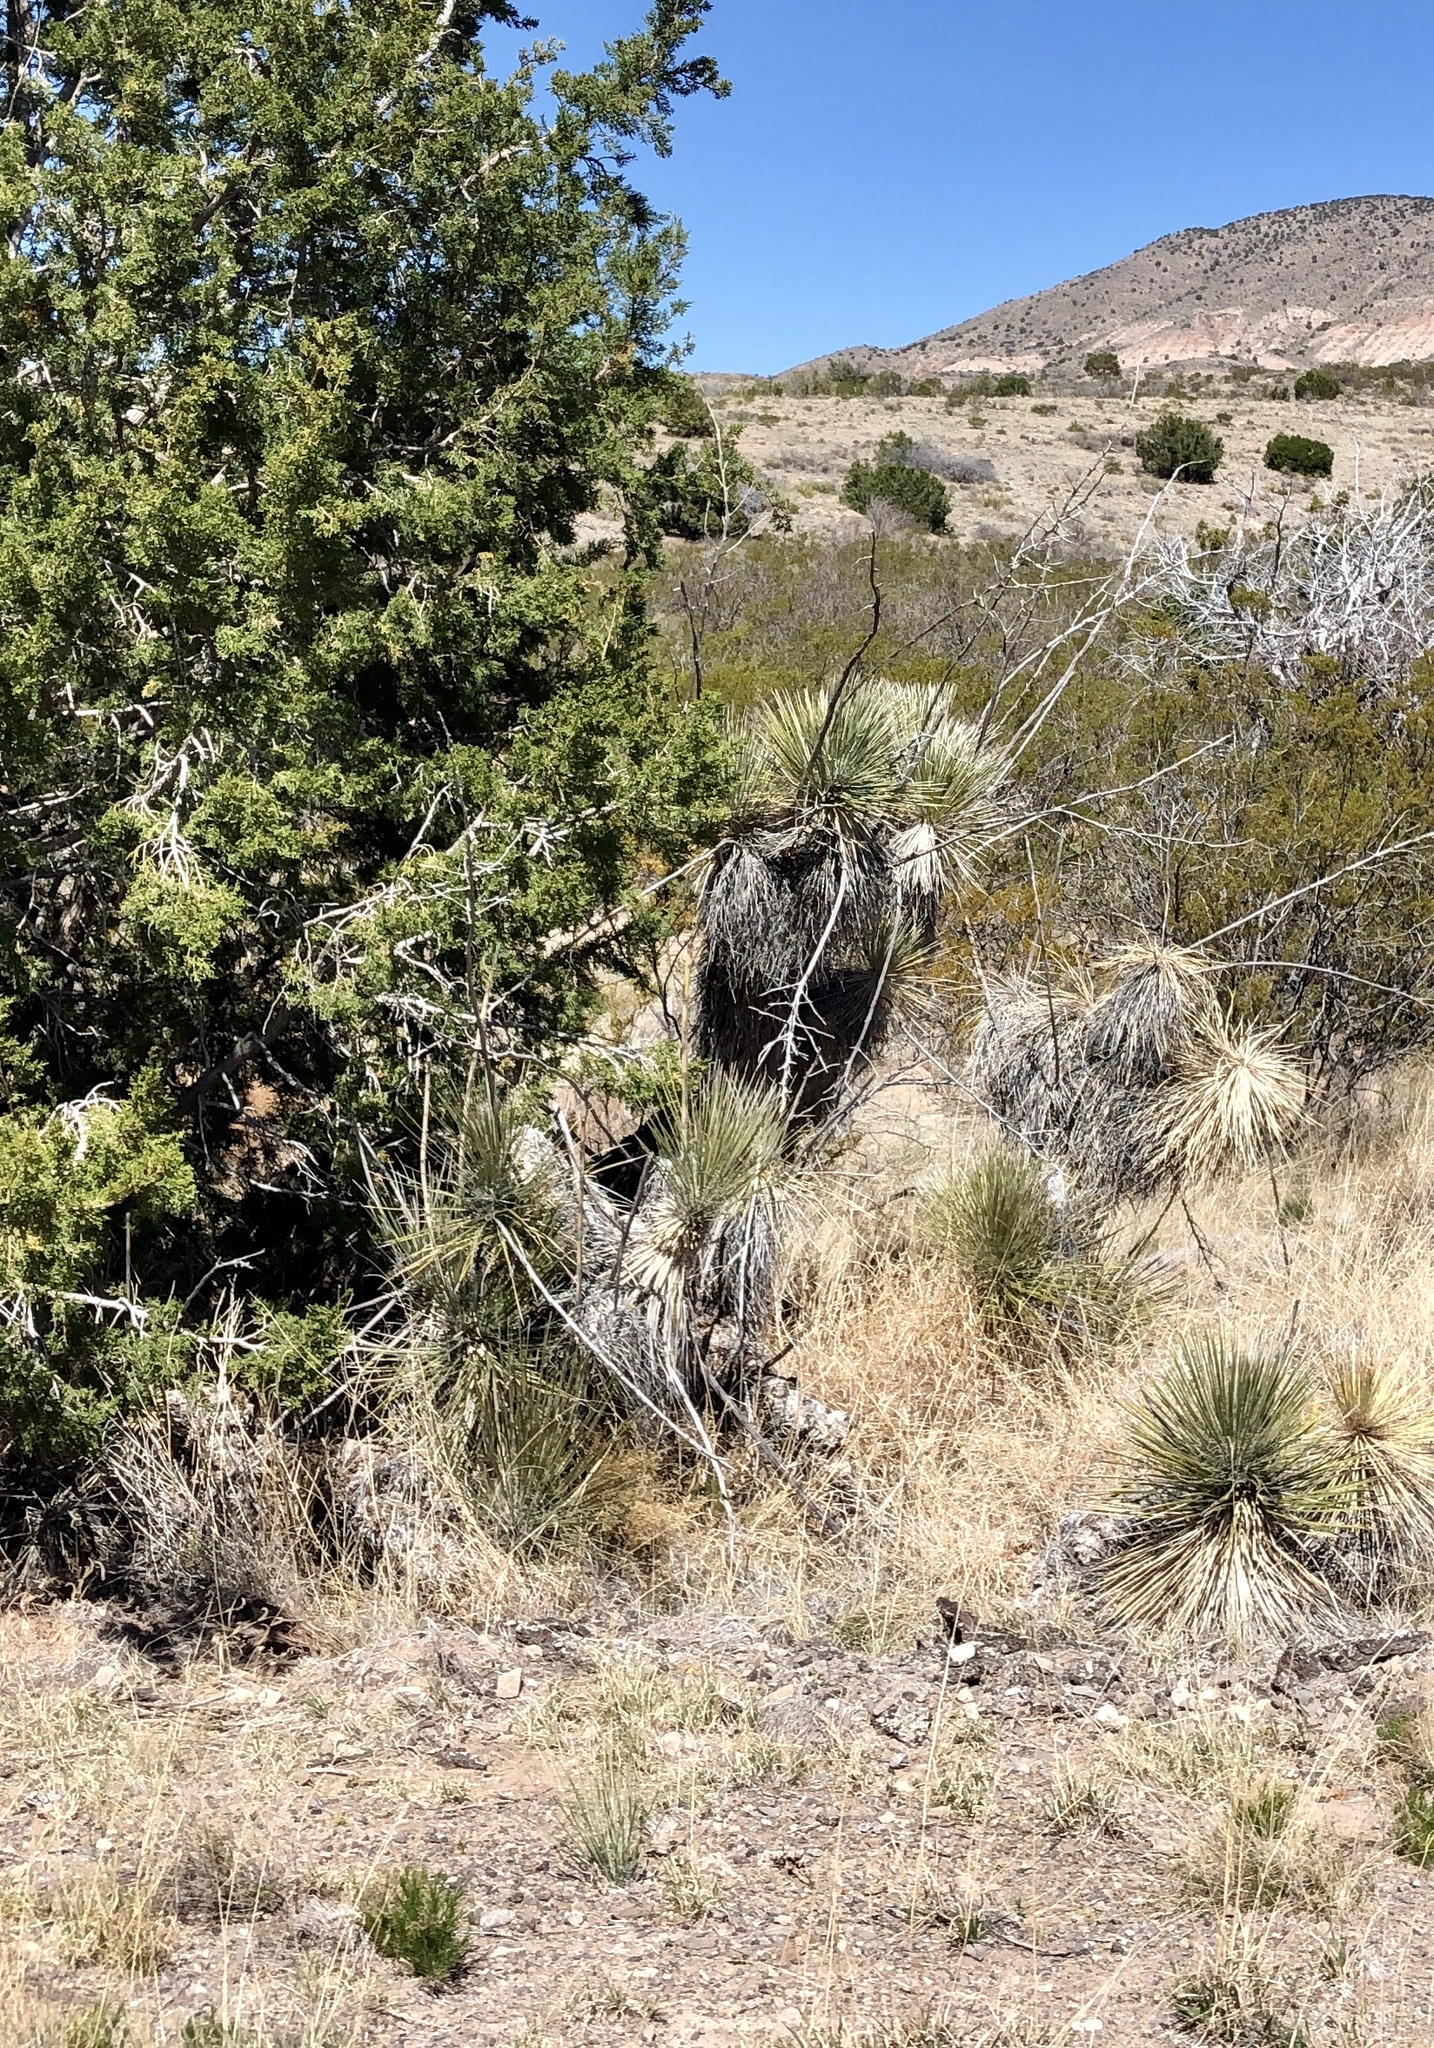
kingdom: Plantae
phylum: Tracheophyta
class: Liliopsida
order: Asparagales
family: Asparagaceae
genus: Yucca
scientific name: Yucca elata
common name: Palmella
